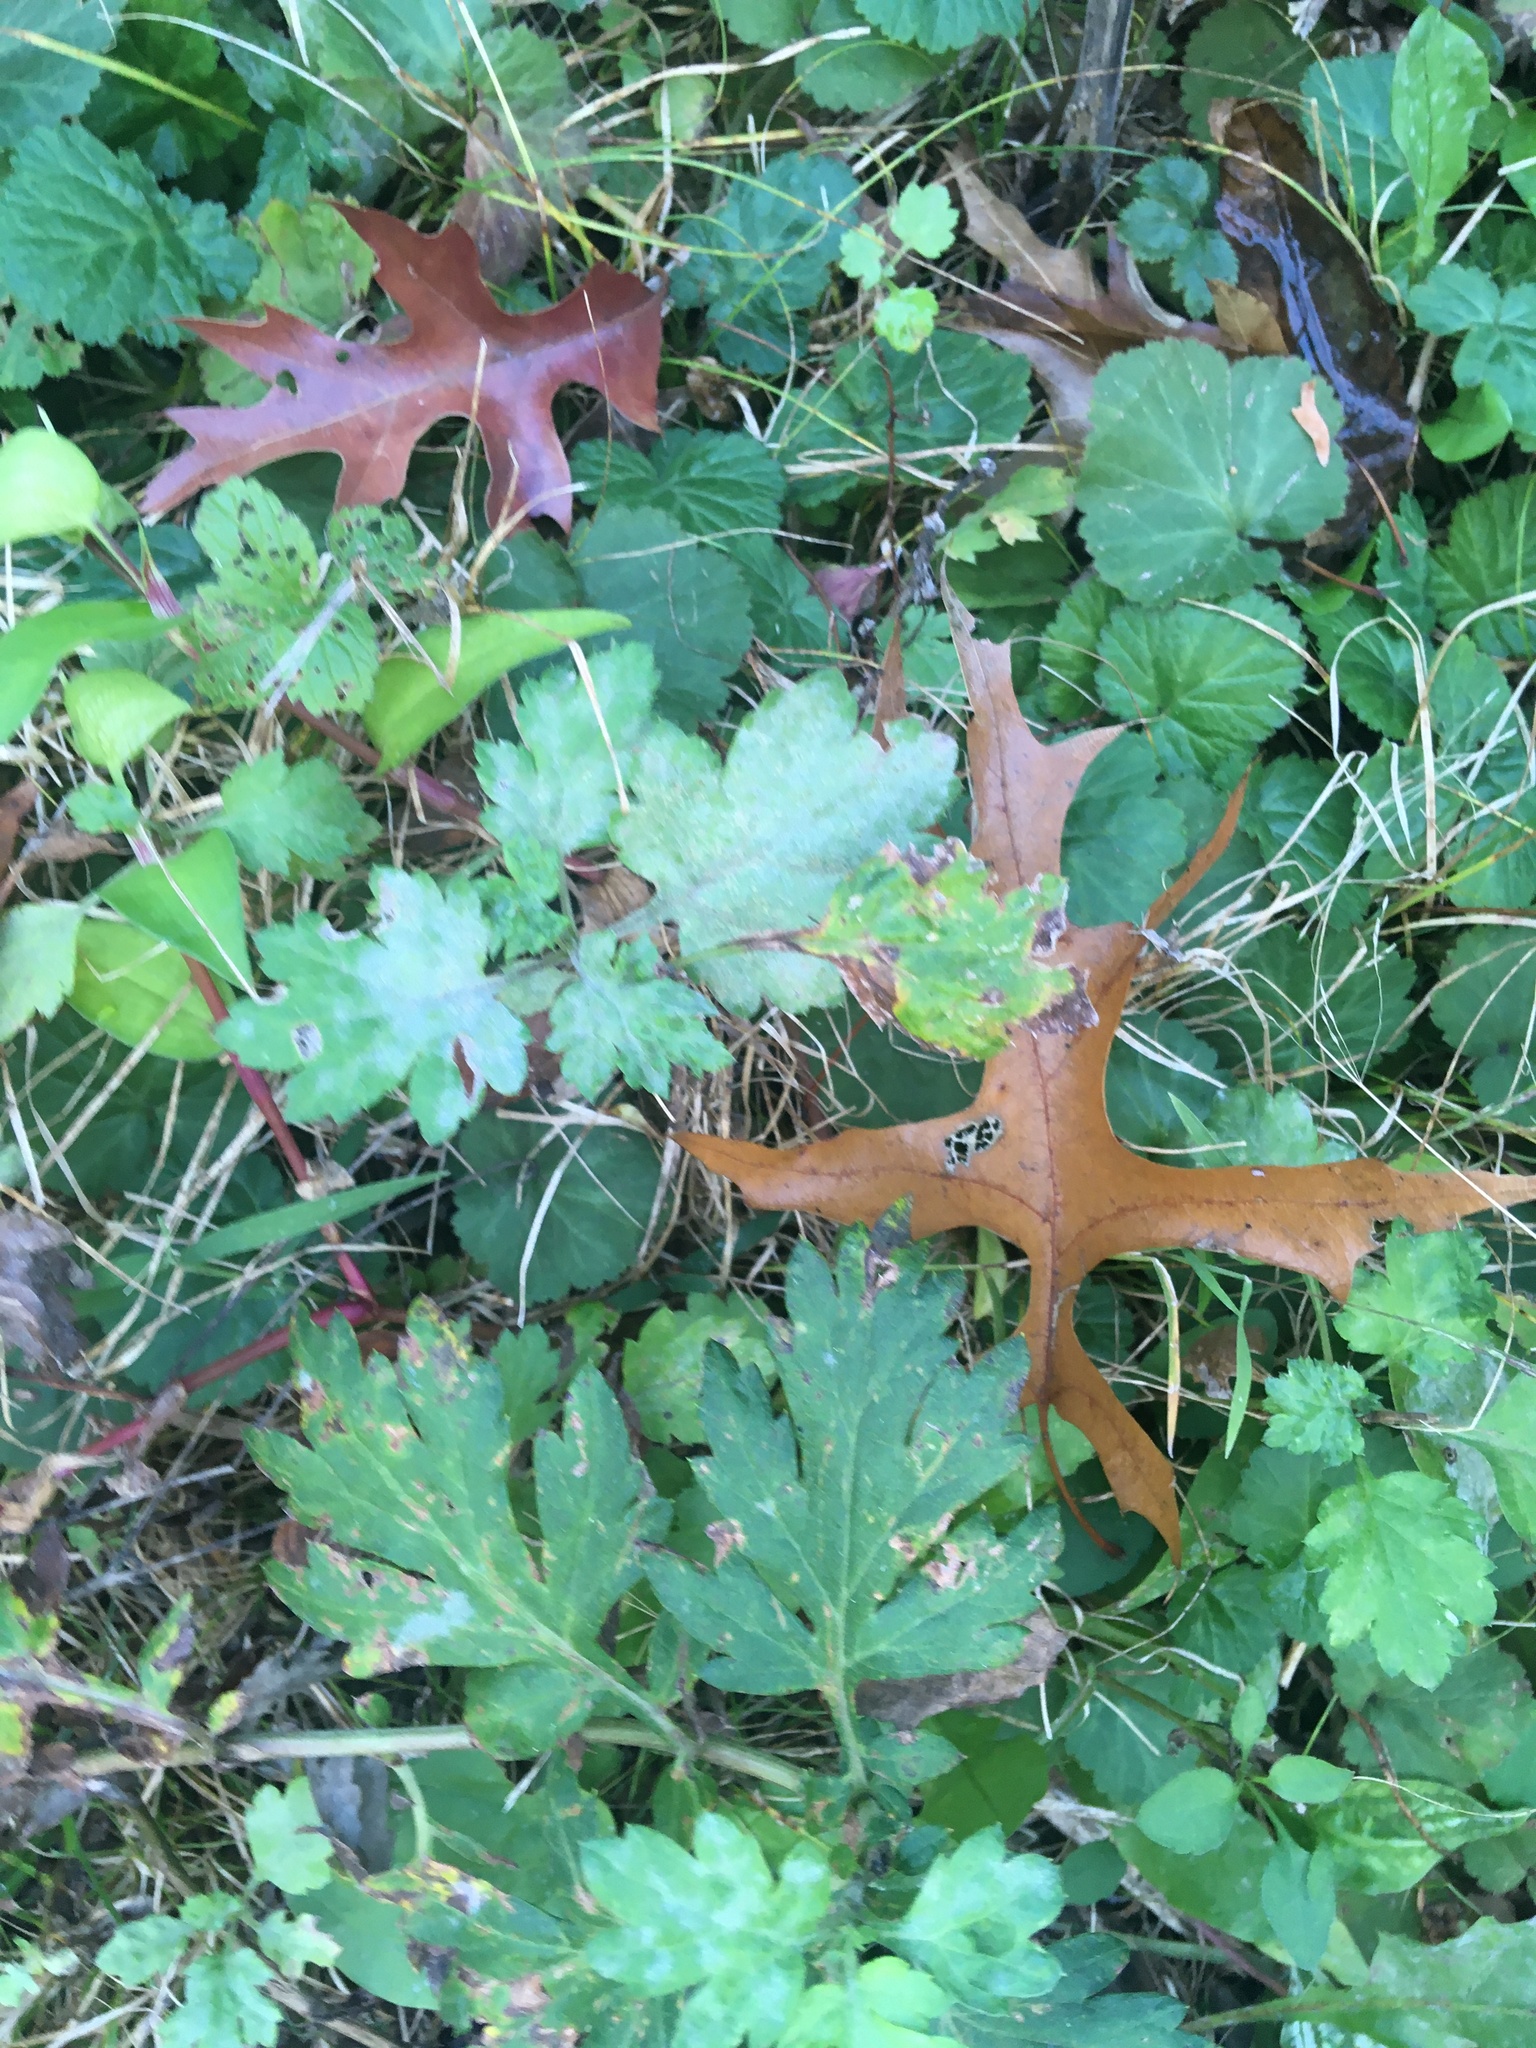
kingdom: Plantae
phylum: Tracheophyta
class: Magnoliopsida
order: Asterales
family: Asteraceae
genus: Artemisia
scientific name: Artemisia vulgaris
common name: Mugwort
